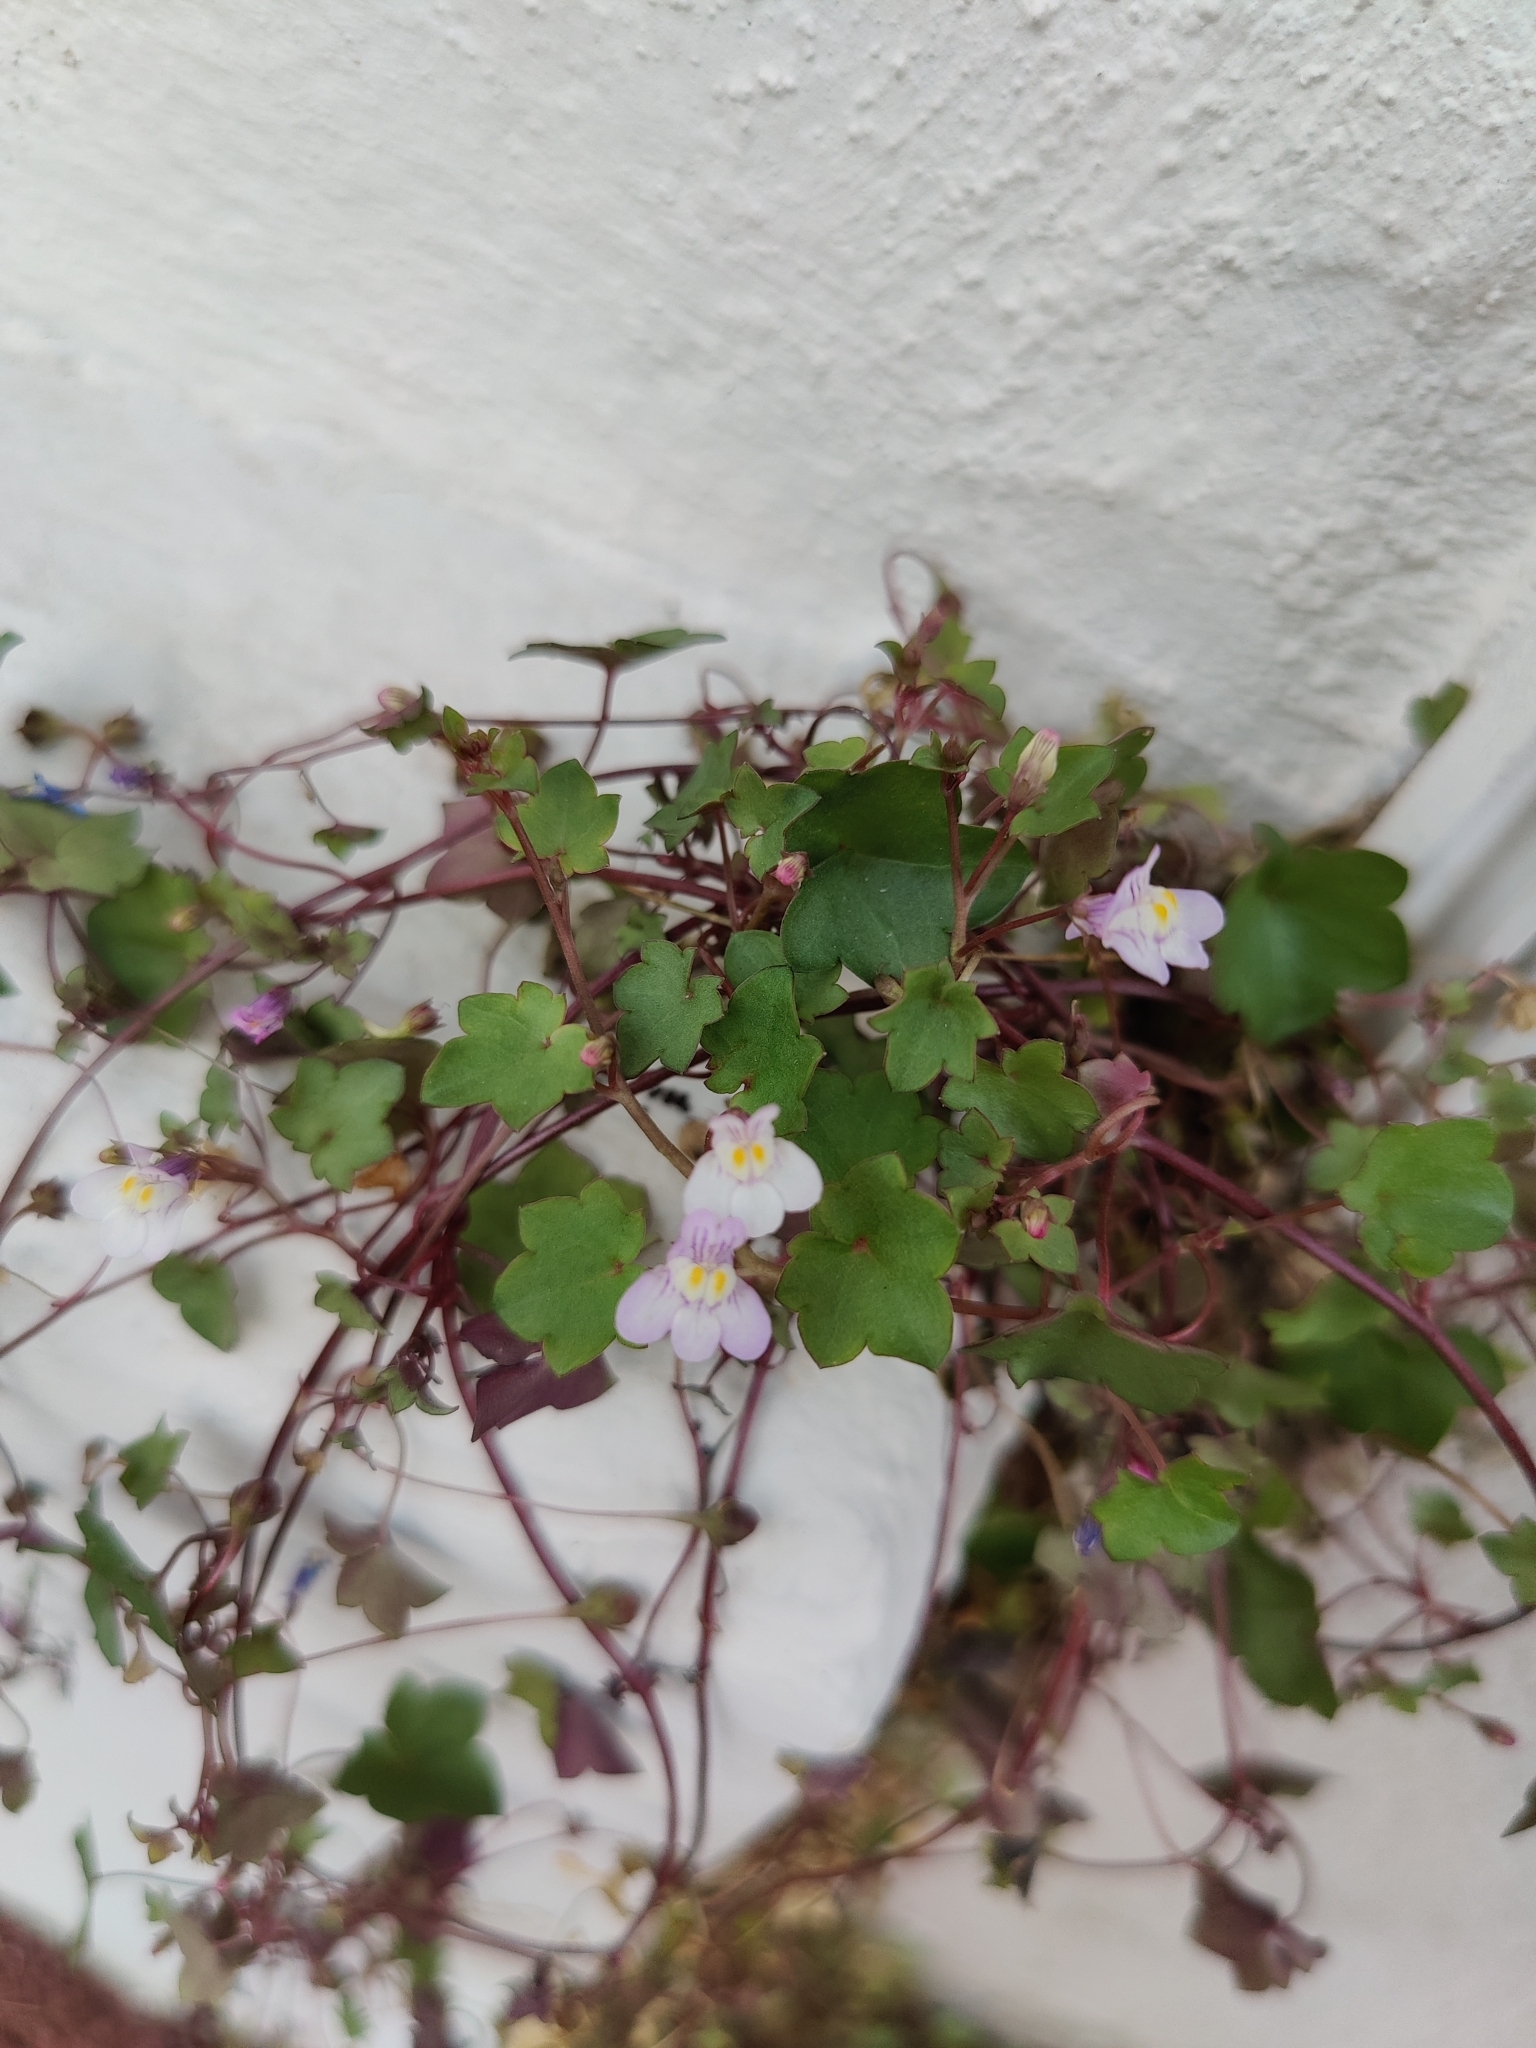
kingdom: Plantae
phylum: Tracheophyta
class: Magnoliopsida
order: Lamiales
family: Plantaginaceae
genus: Cymbalaria
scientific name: Cymbalaria muralis
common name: Ivy-leaved toadflax
